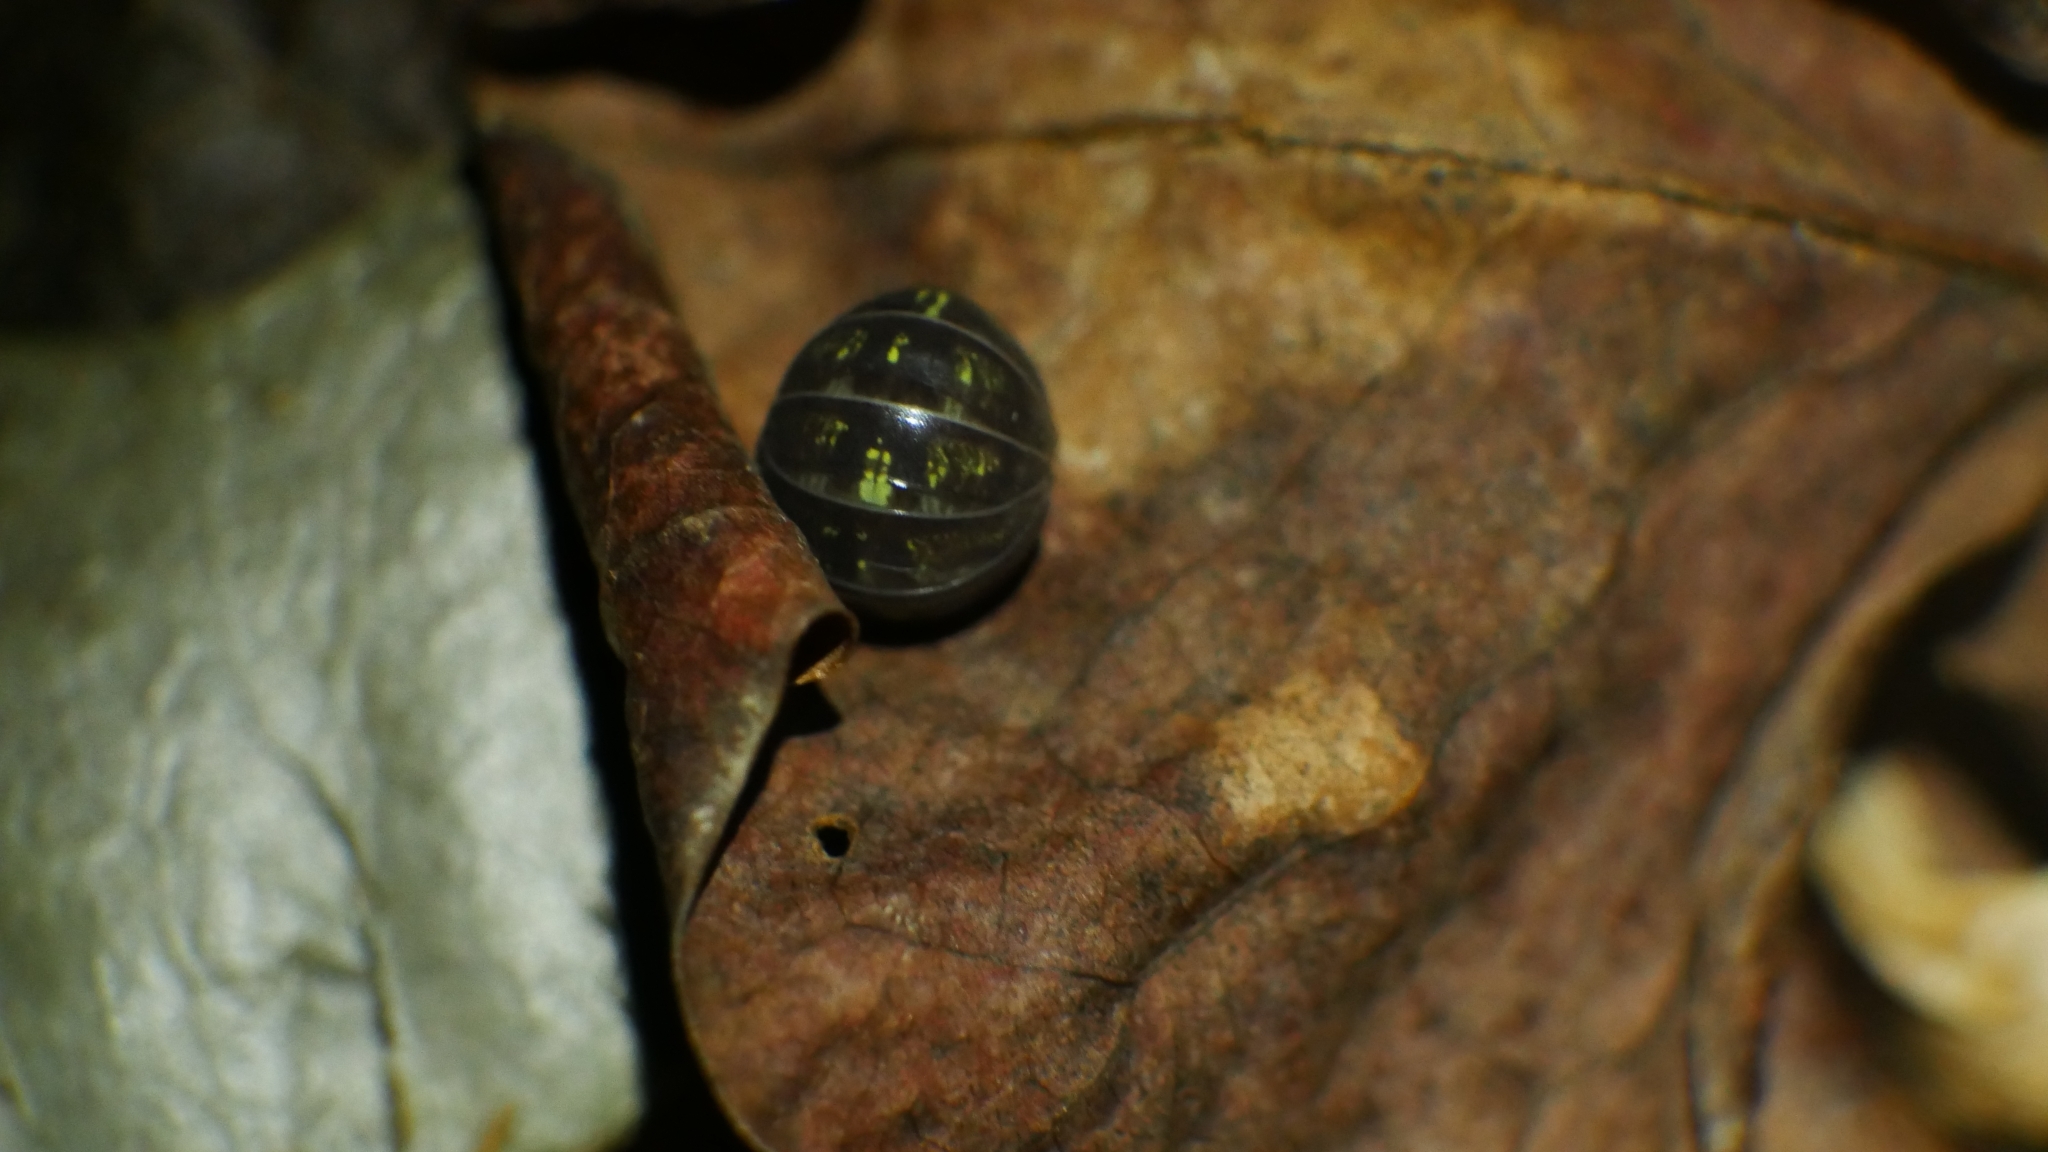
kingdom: Animalia
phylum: Arthropoda
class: Malacostraca
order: Isopoda
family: Armadillidiidae
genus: Armadillidium
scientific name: Armadillidium vulgare
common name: Common pill woodlouse
